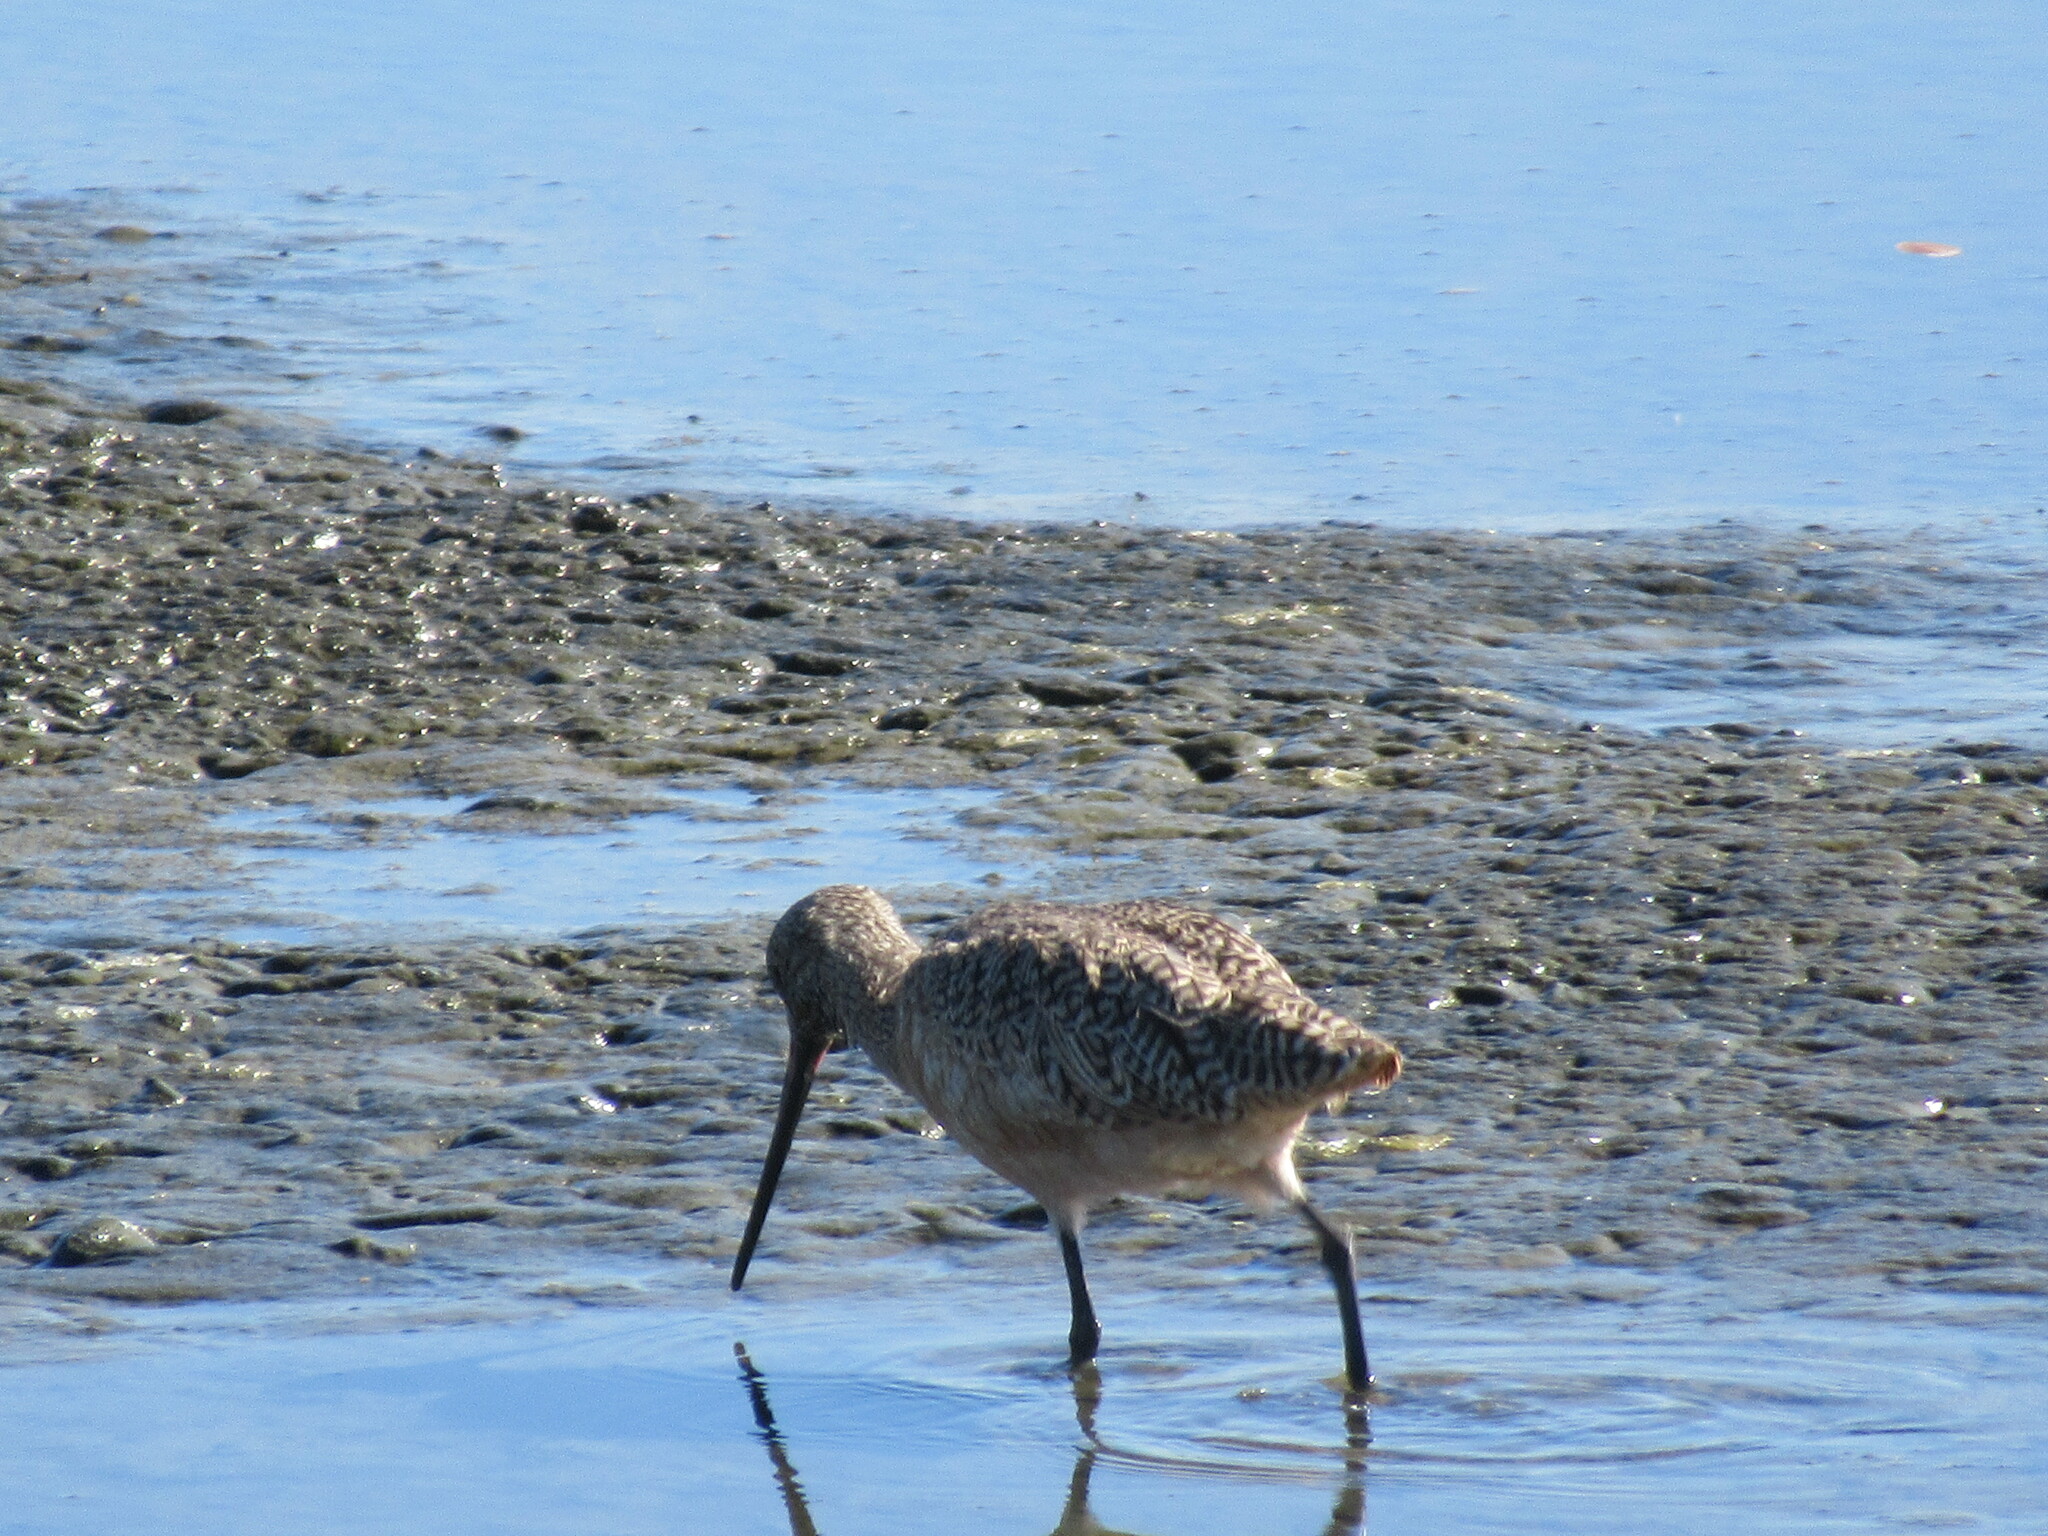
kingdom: Animalia
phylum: Chordata
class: Aves
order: Charadriiformes
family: Scolopacidae
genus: Limosa
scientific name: Limosa fedoa
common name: Marbled godwit
